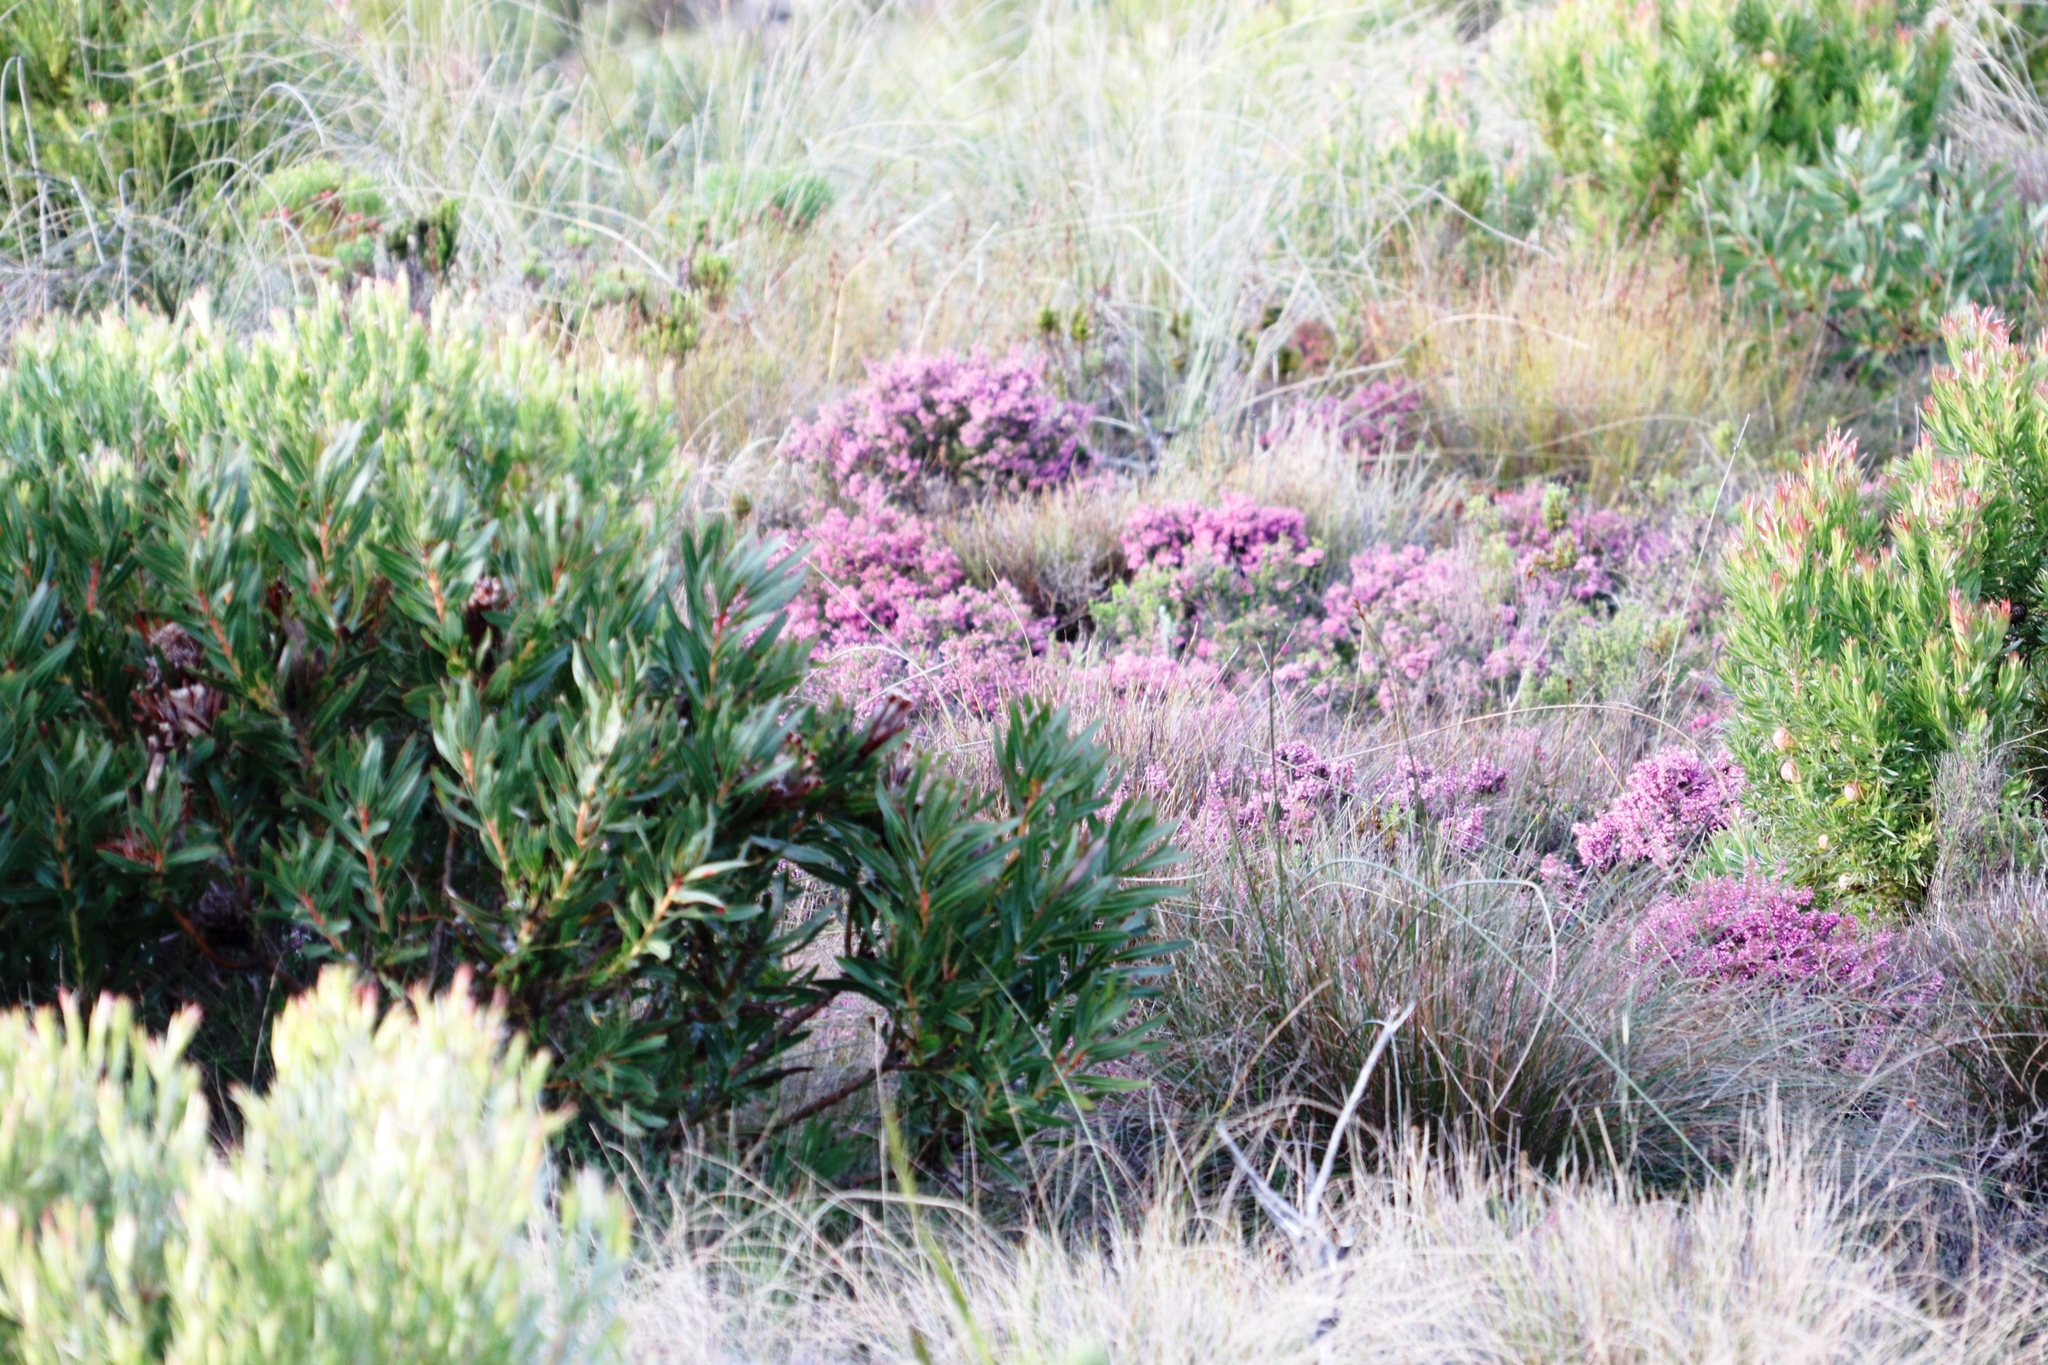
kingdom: Plantae
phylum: Tracheophyta
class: Magnoliopsida
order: Ericales
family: Ericaceae
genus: Erica
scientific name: Erica nudiflora
